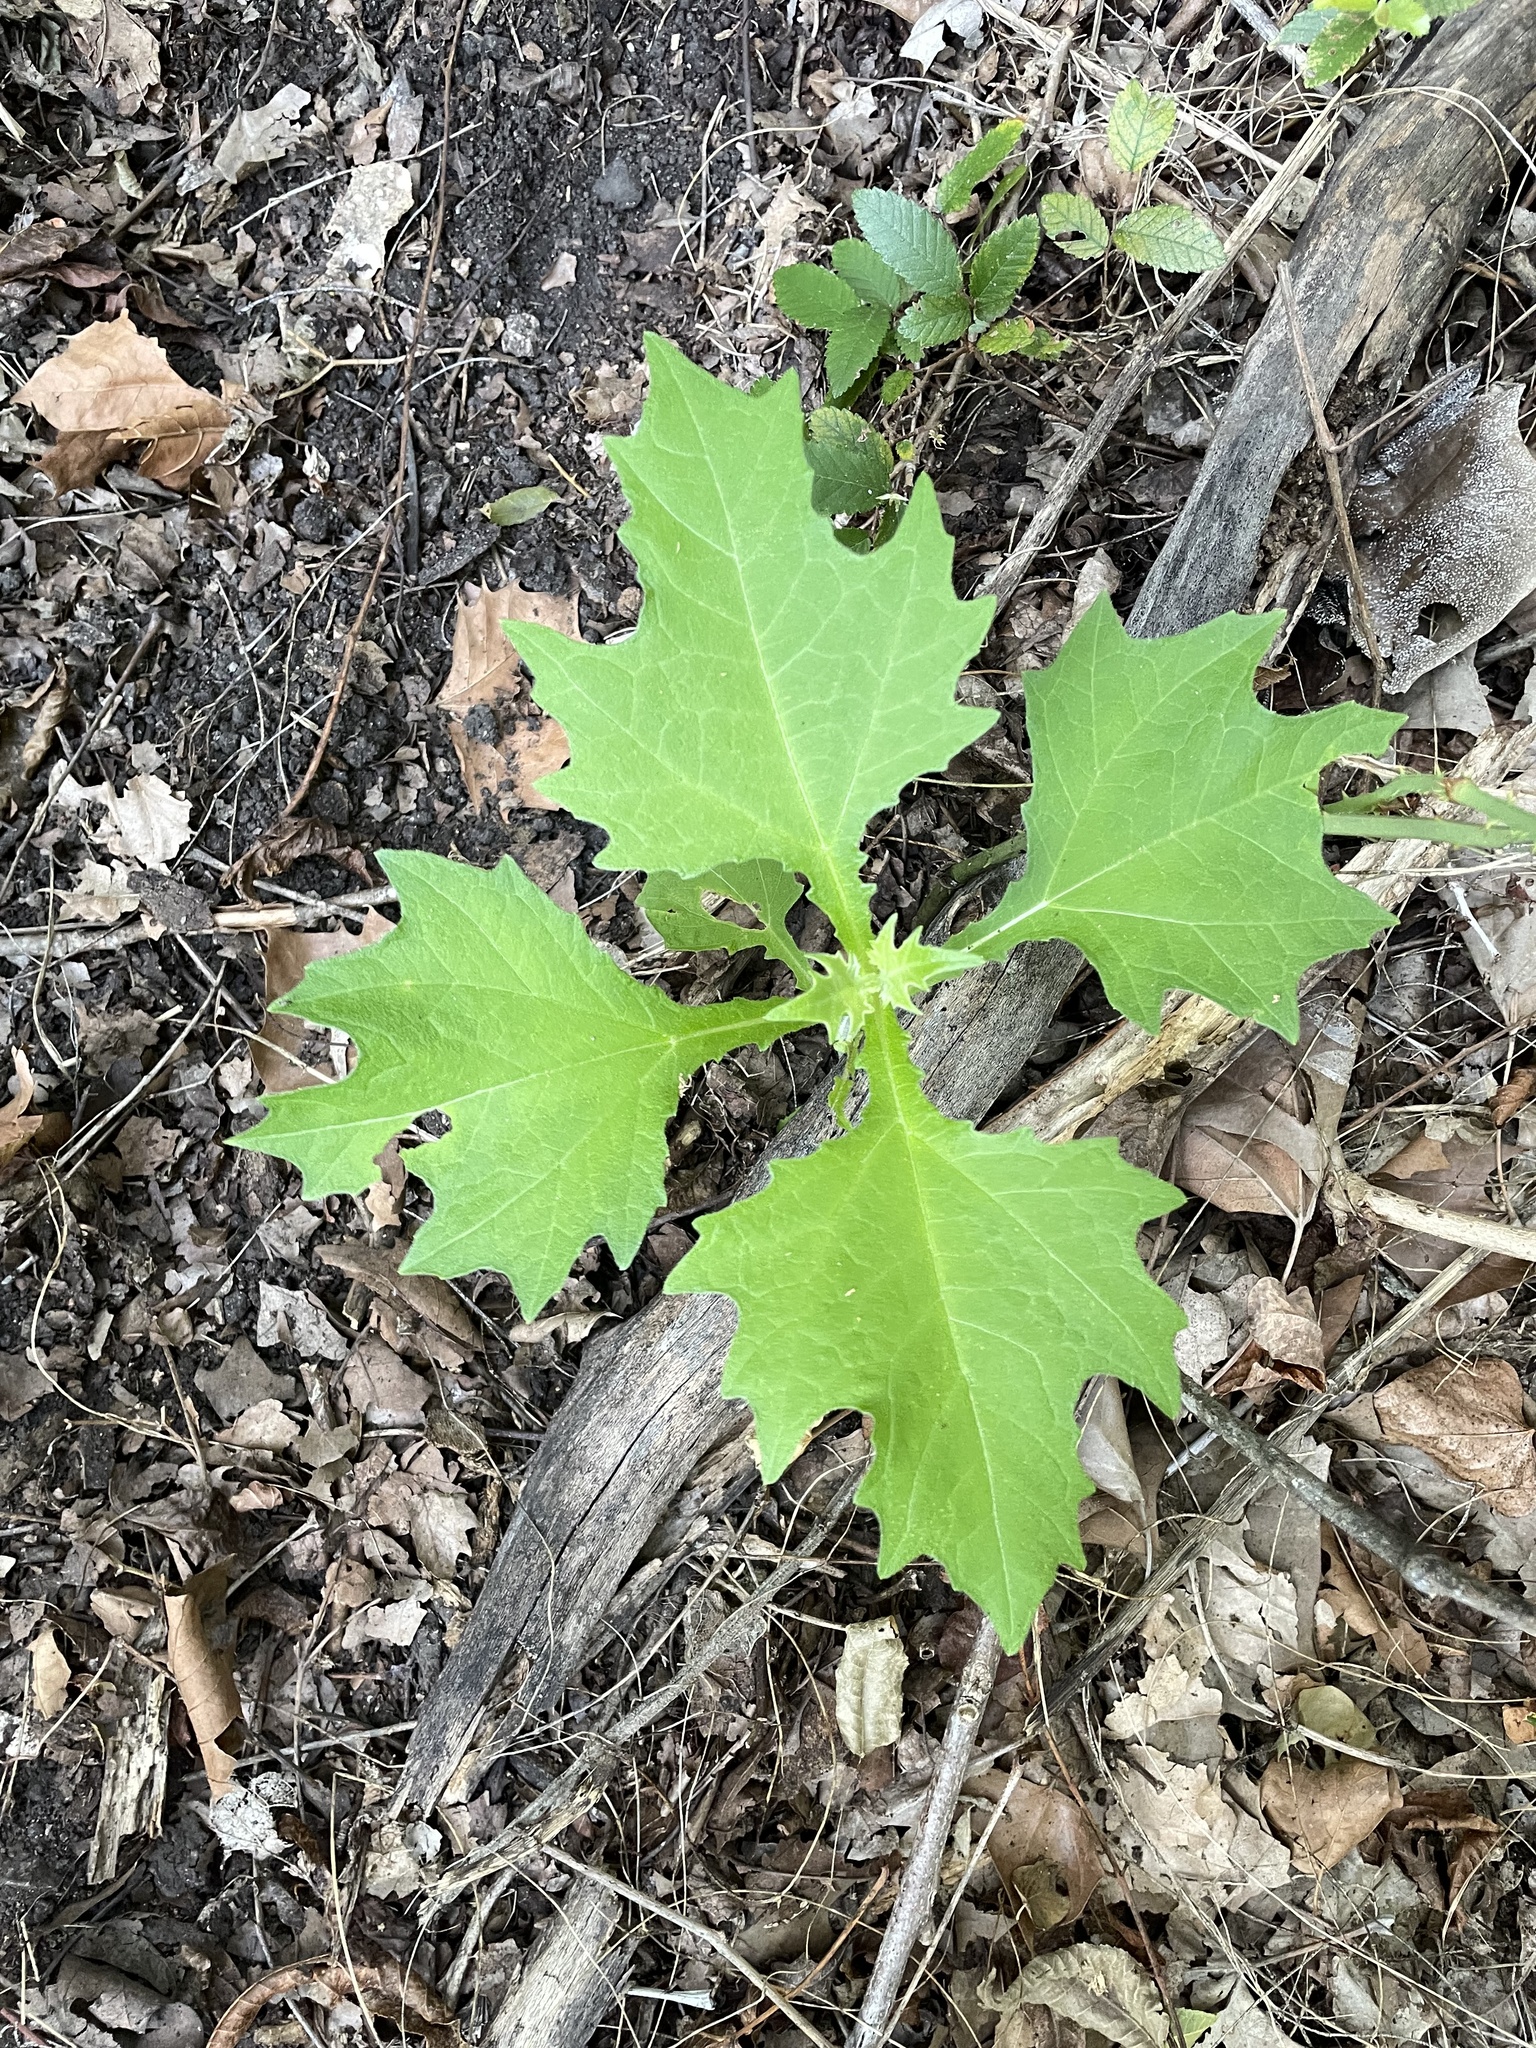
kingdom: Plantae
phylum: Tracheophyta
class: Magnoliopsida
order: Asterales
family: Asteraceae
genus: Smallanthus
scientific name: Smallanthus uvedalia
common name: Bear's-foot
